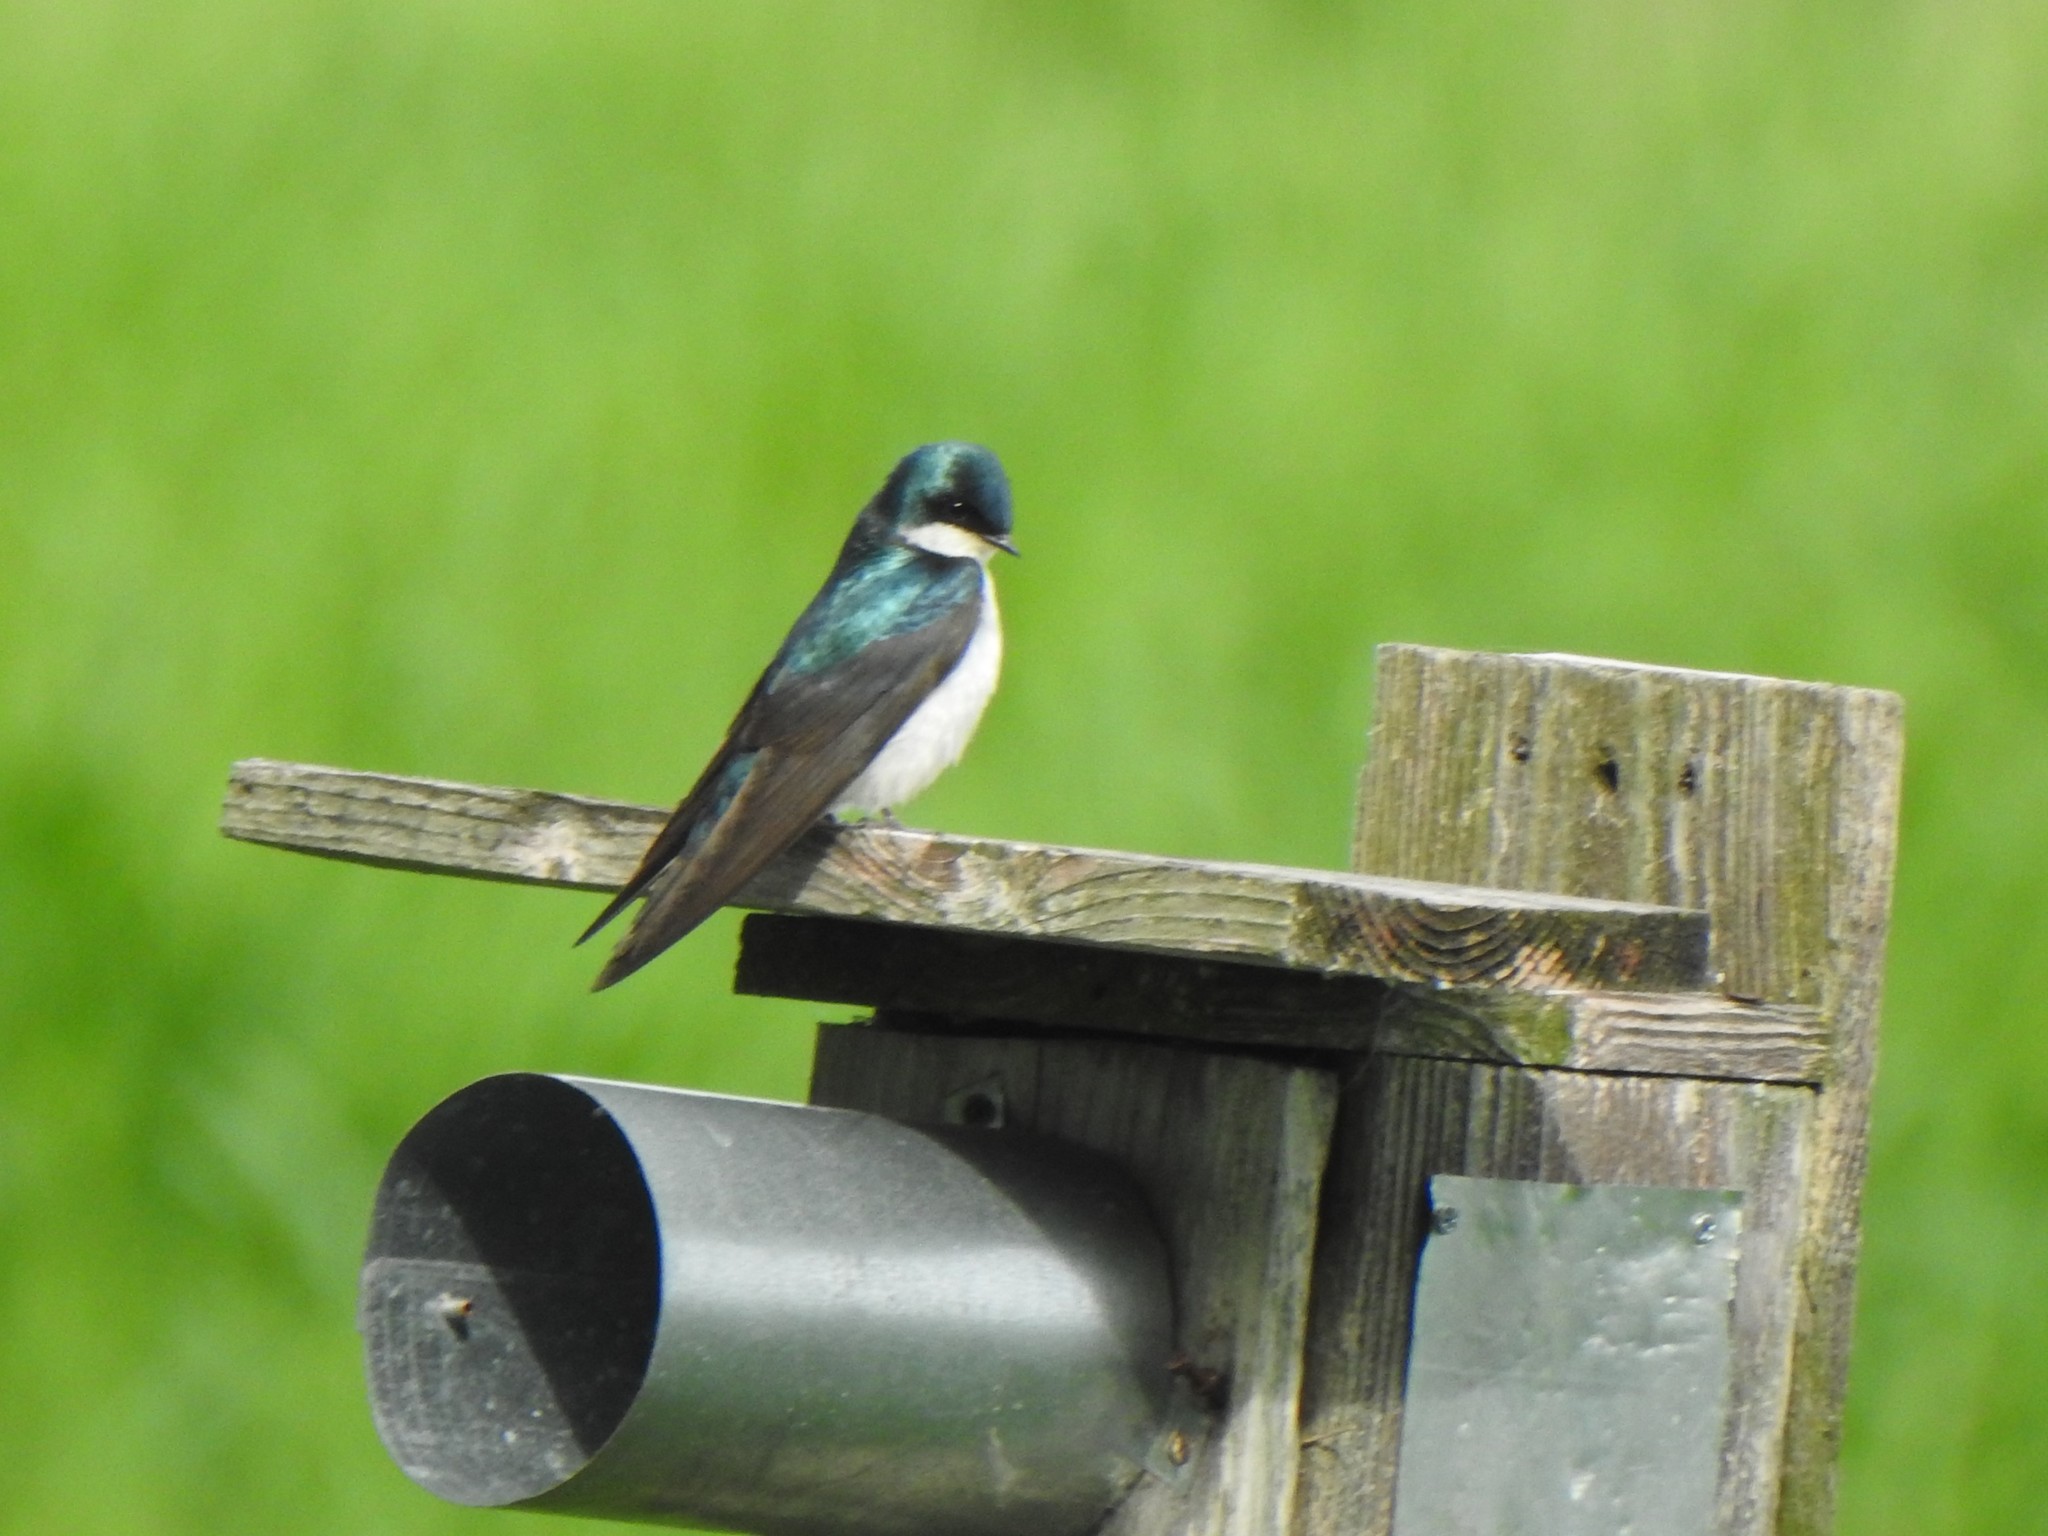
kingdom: Animalia
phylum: Chordata
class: Aves
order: Passeriformes
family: Hirundinidae
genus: Tachycineta
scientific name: Tachycineta bicolor
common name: Tree swallow
